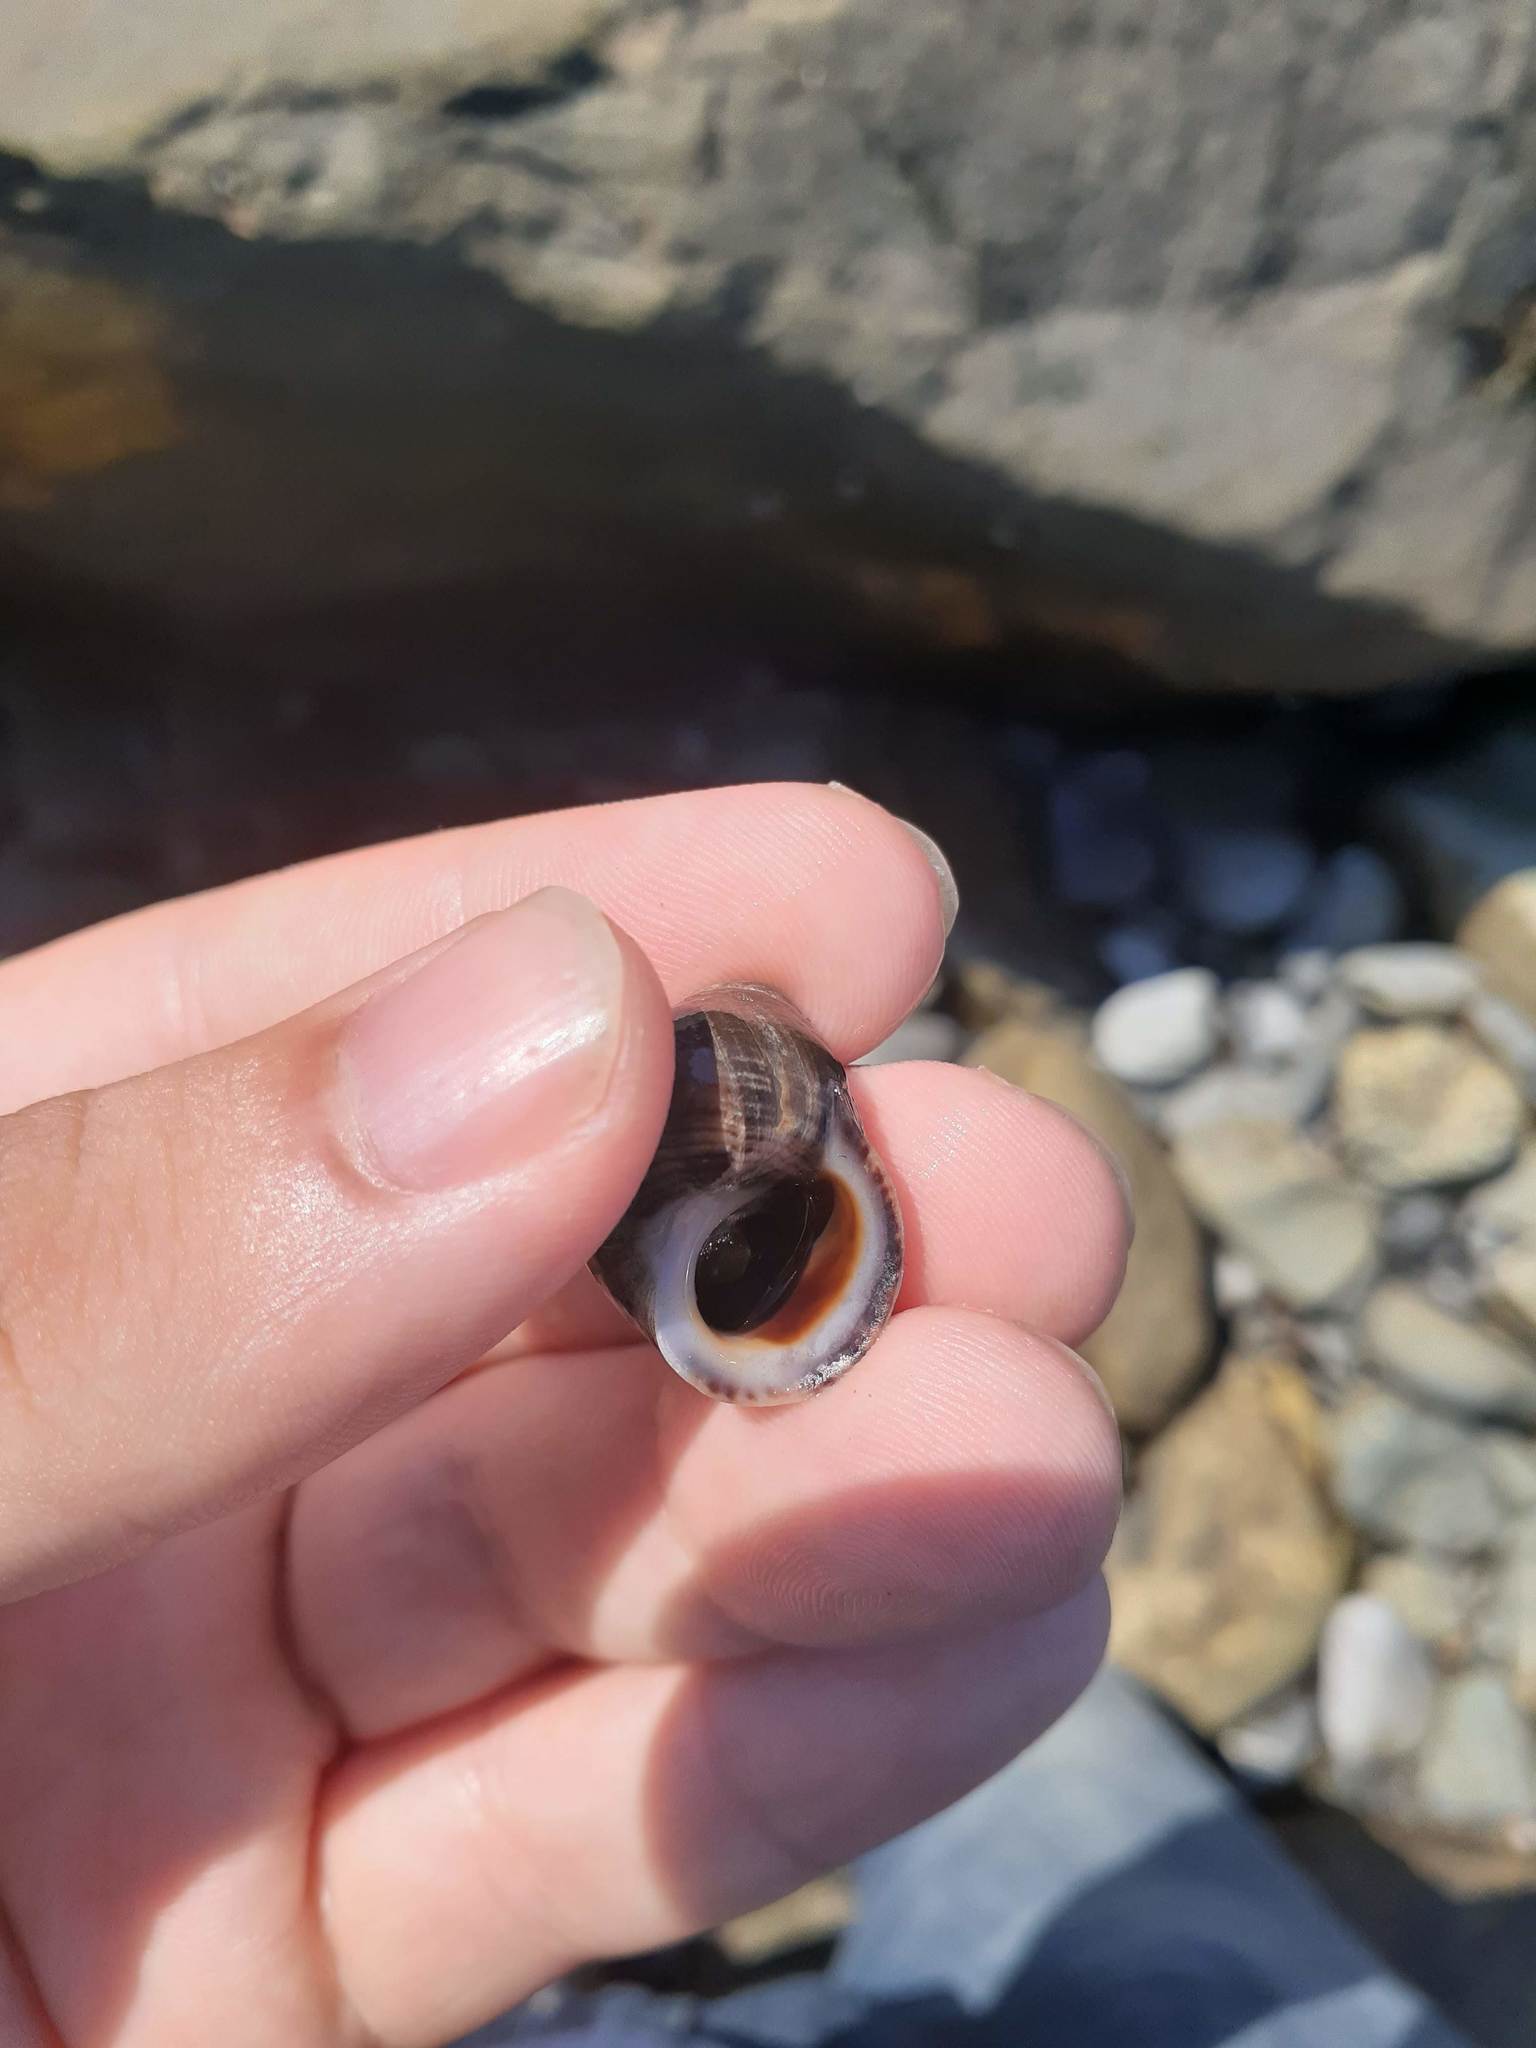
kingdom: Animalia
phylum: Mollusca
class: Gastropoda
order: Littorinimorpha
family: Littorinidae
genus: Littorina
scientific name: Littorina littorea
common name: Common periwinkle
